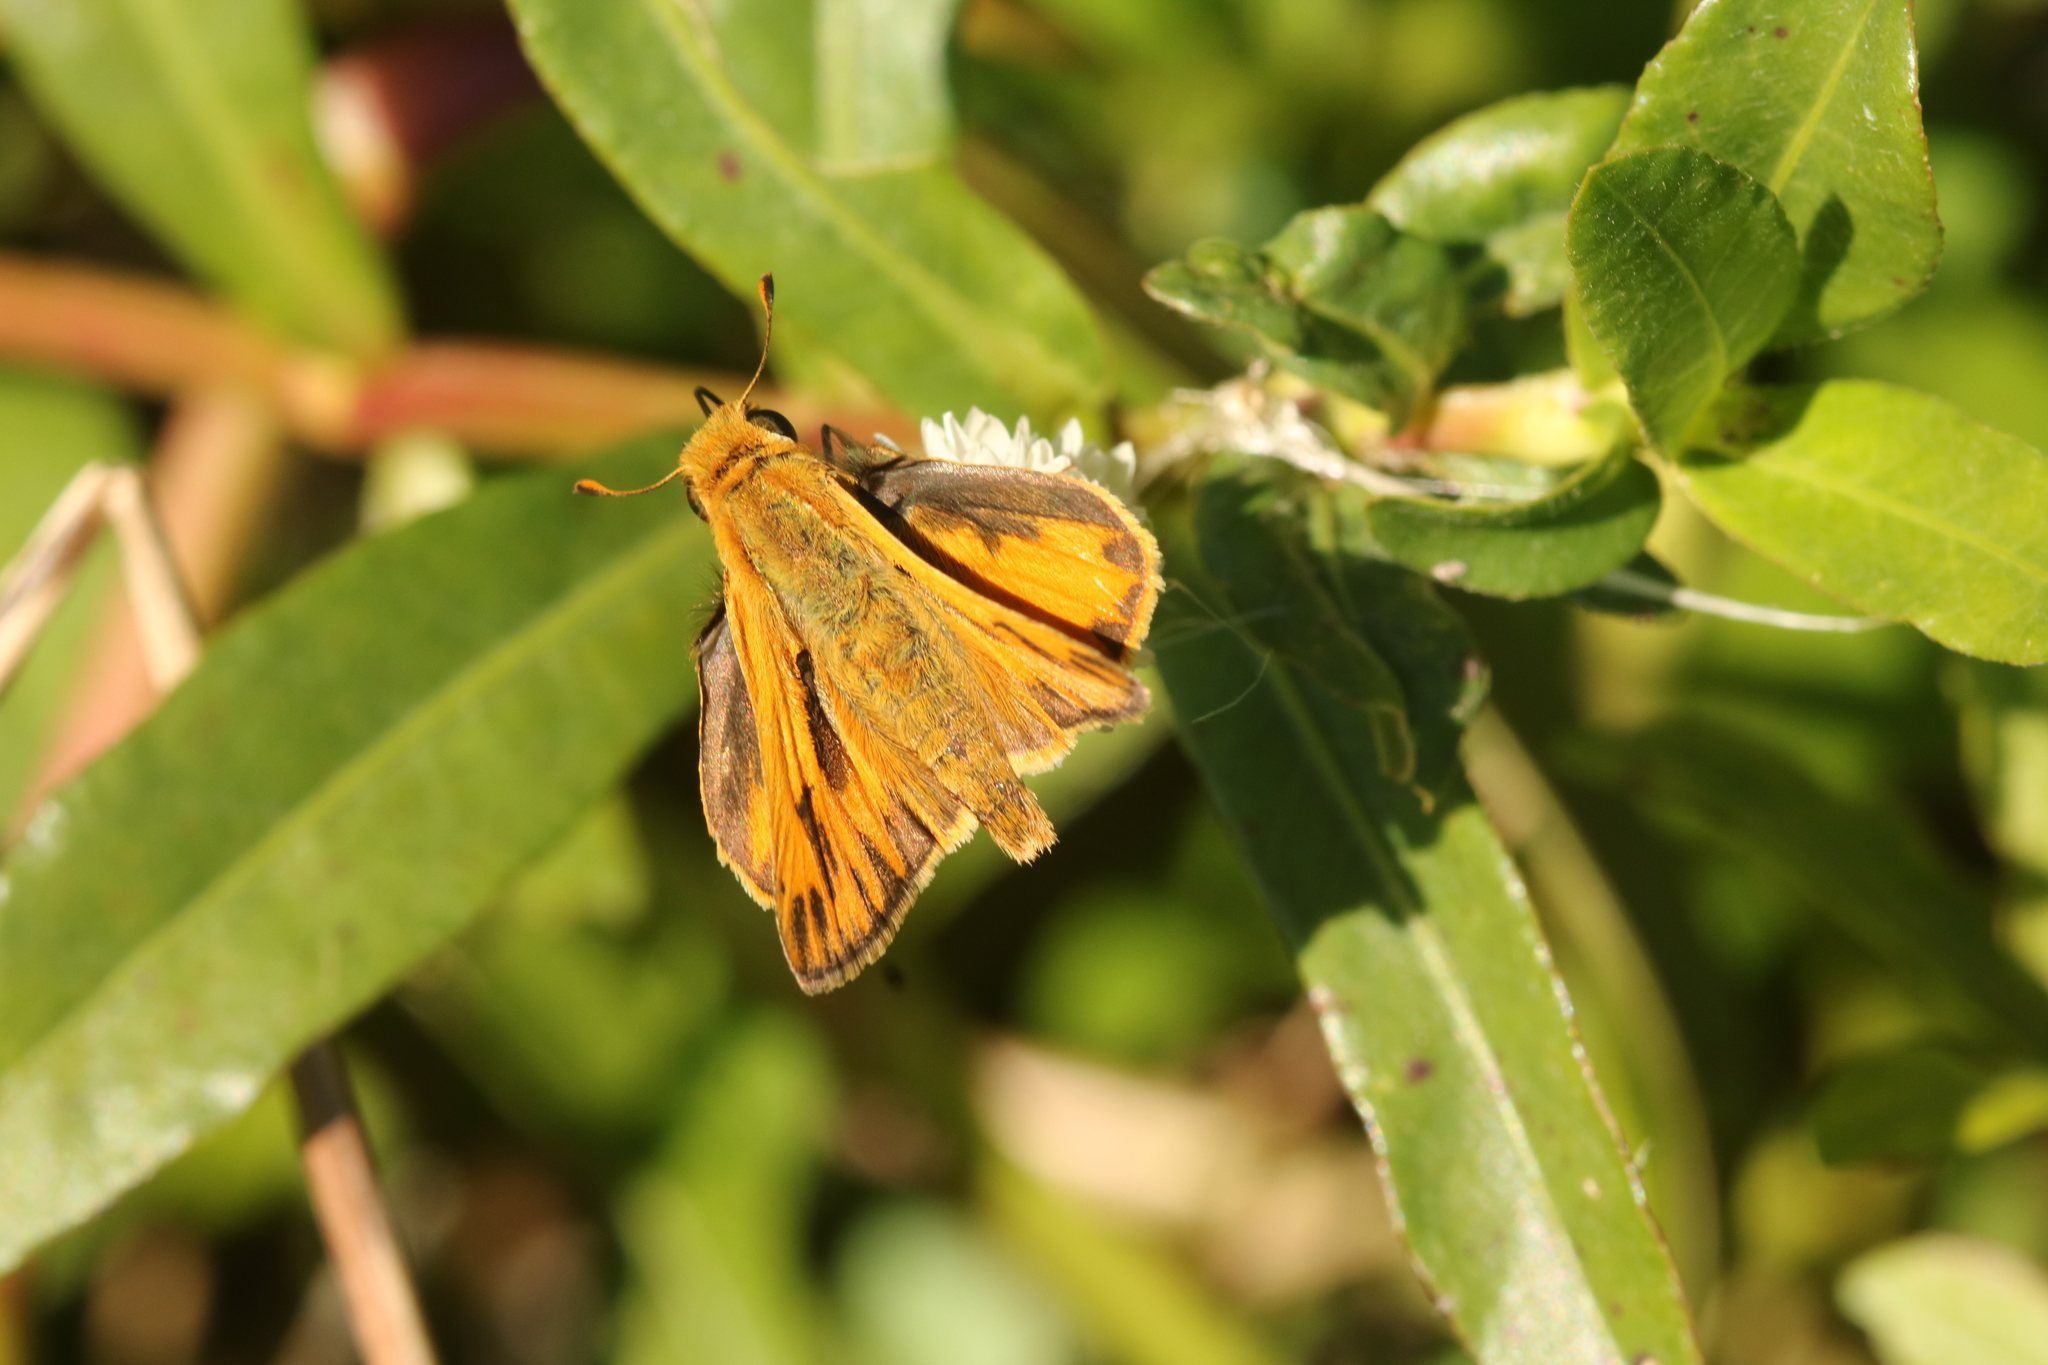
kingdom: Animalia
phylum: Arthropoda
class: Insecta
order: Lepidoptera
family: Hesperiidae
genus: Hylephila
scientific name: Hylephila phyleus
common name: Fiery skipper
